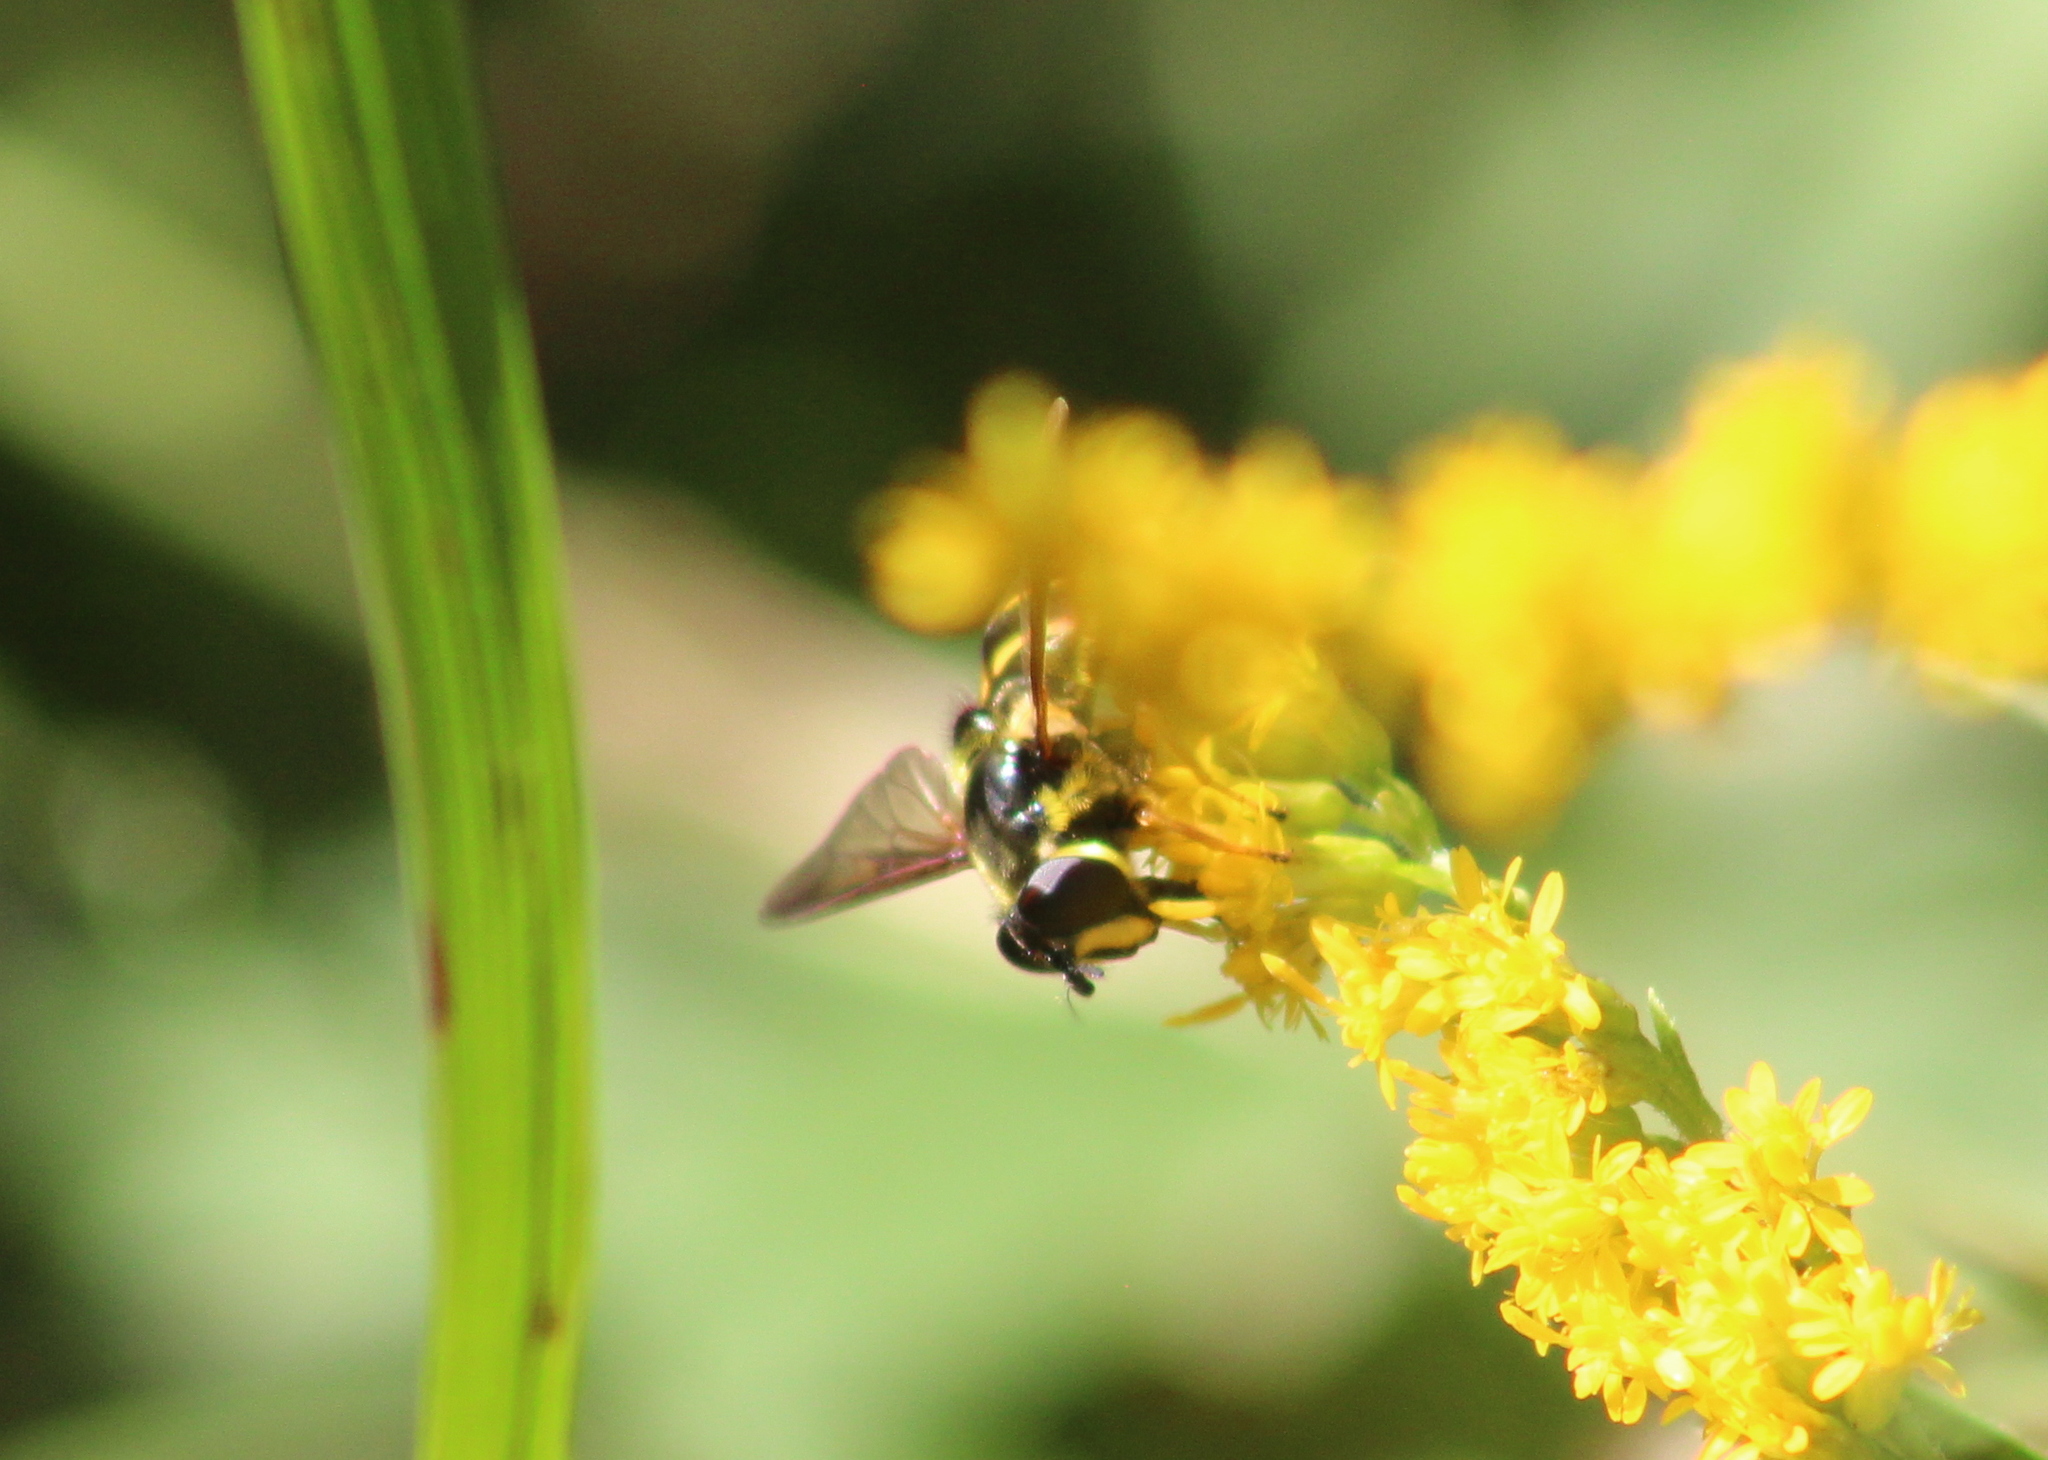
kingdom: Animalia
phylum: Arthropoda
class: Insecta
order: Diptera
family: Syrphidae
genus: Sericomyia
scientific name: Sericomyia chrysotoxoides
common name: Oblique-banded pond fly
